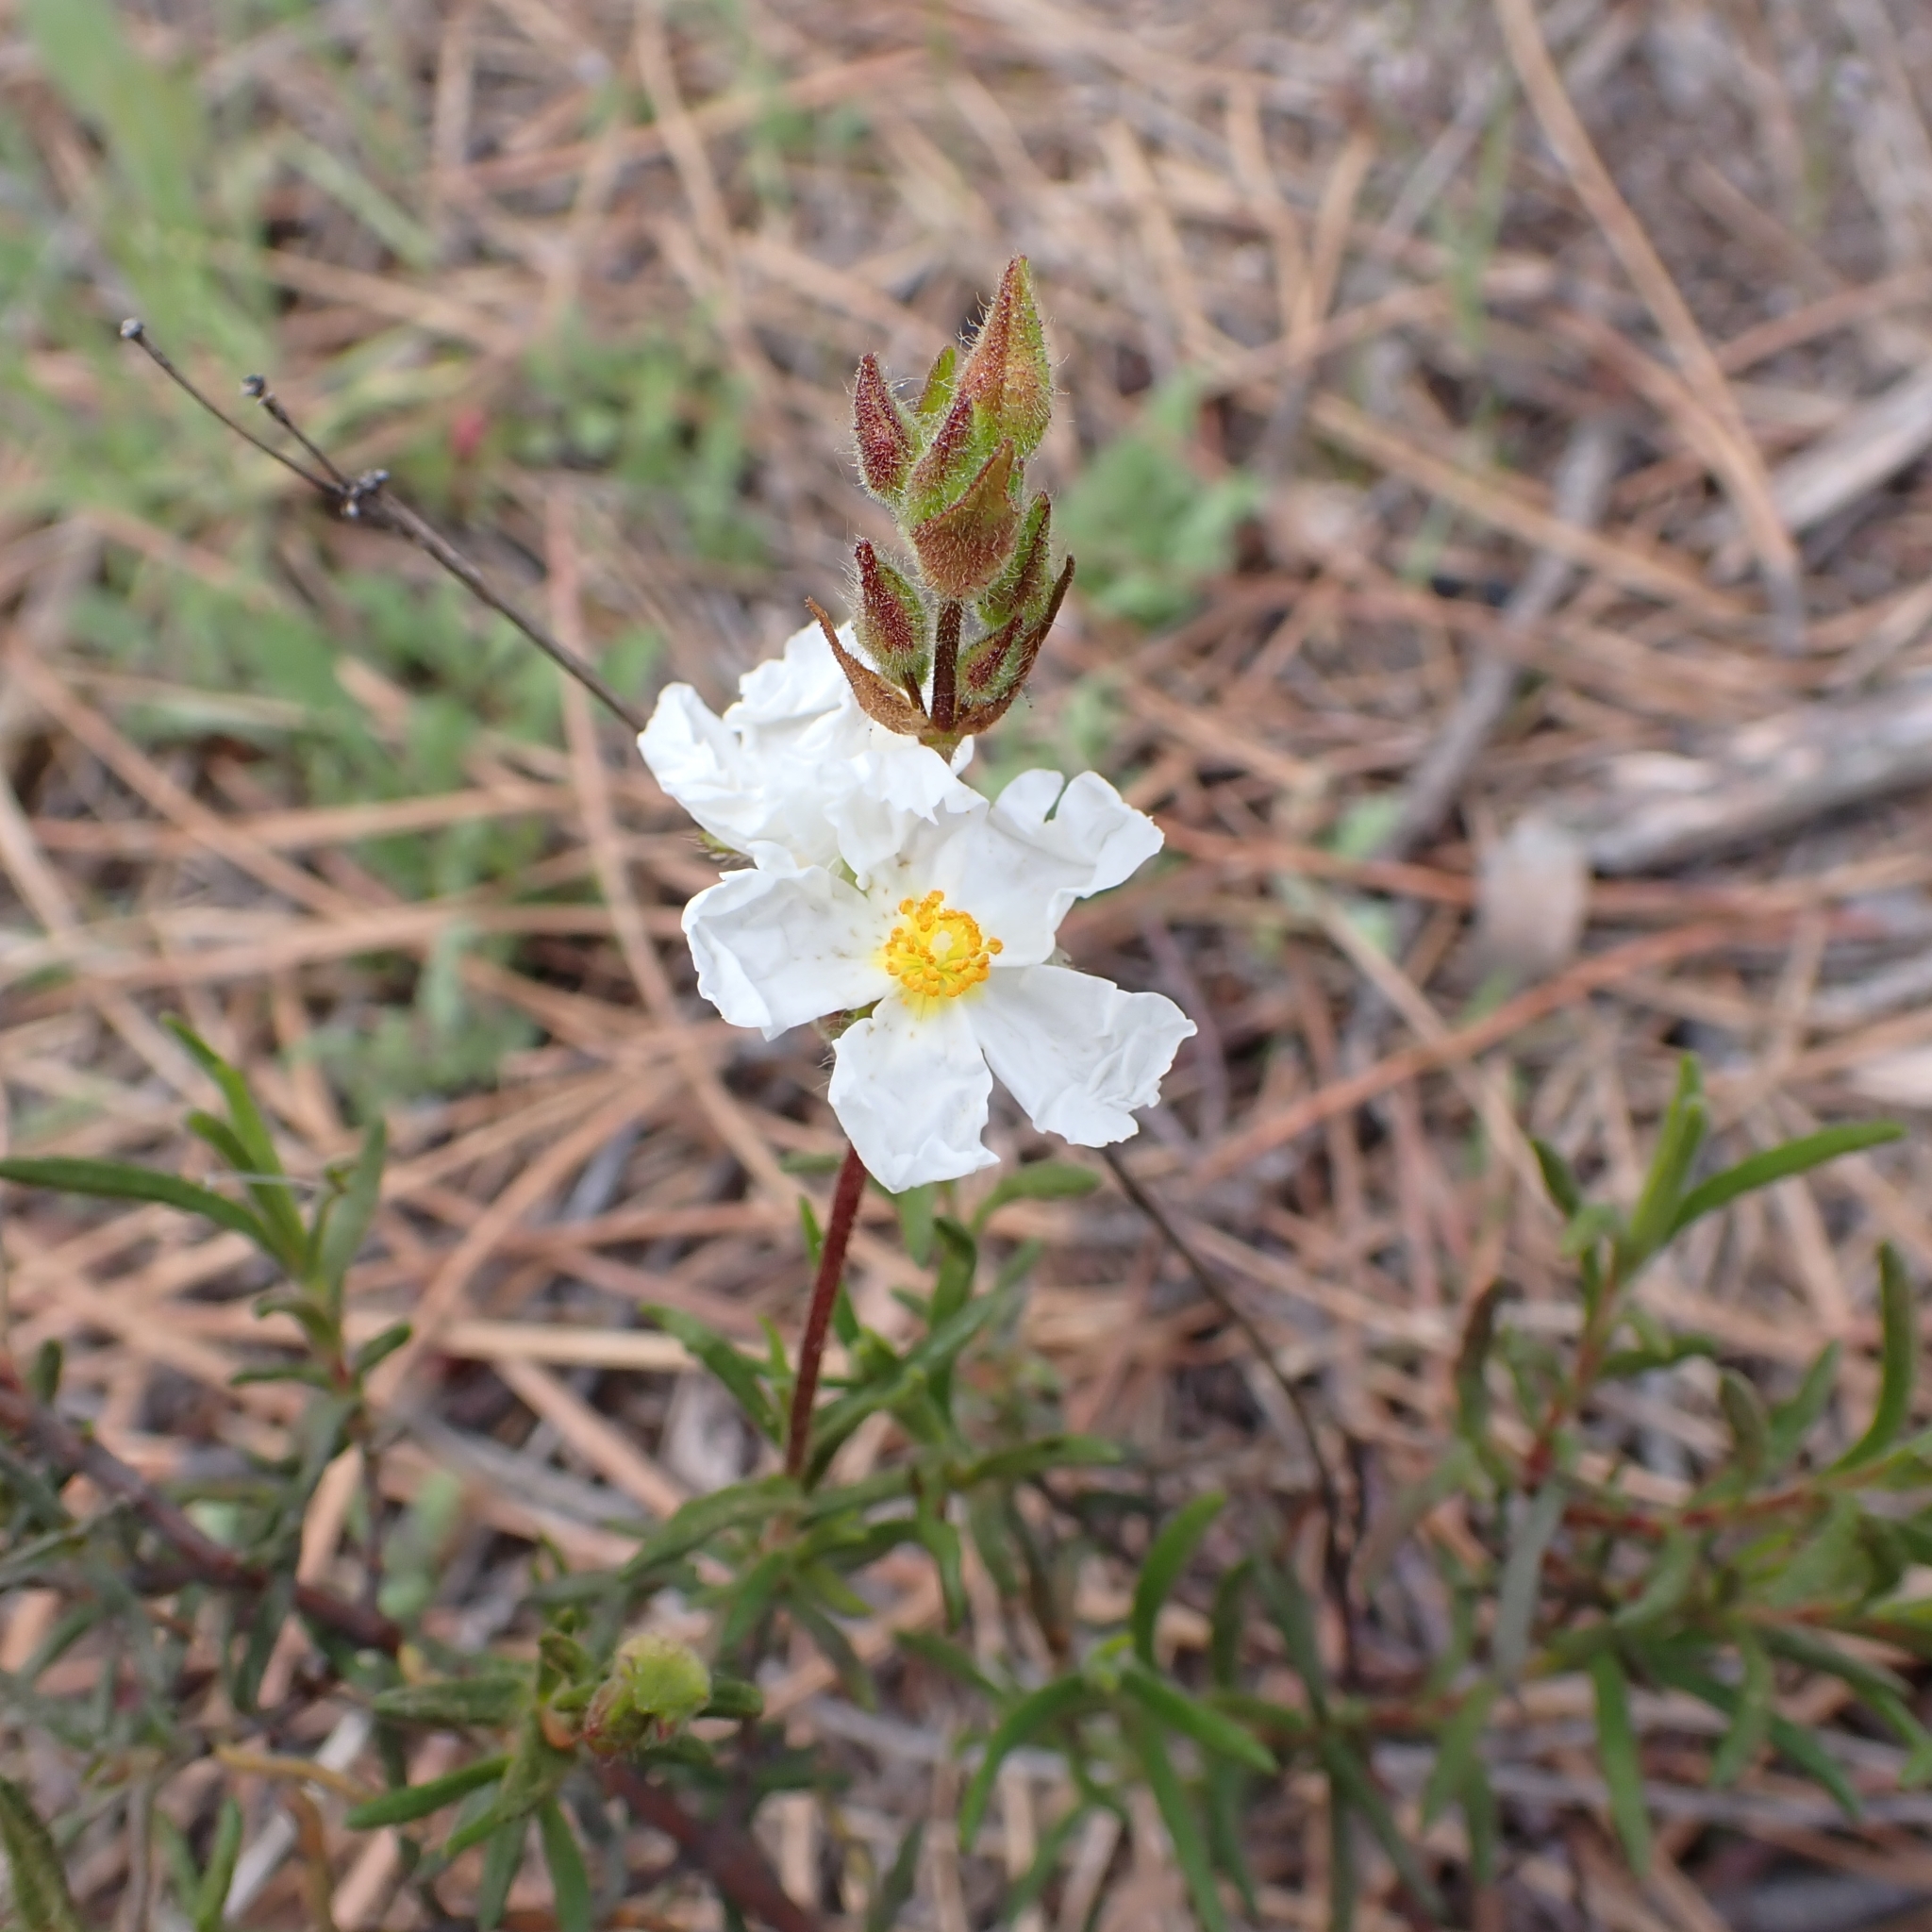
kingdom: Plantae
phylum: Tracheophyta
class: Magnoliopsida
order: Malvales
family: Cistaceae
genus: Halimium
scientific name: Halimium umbellatum
